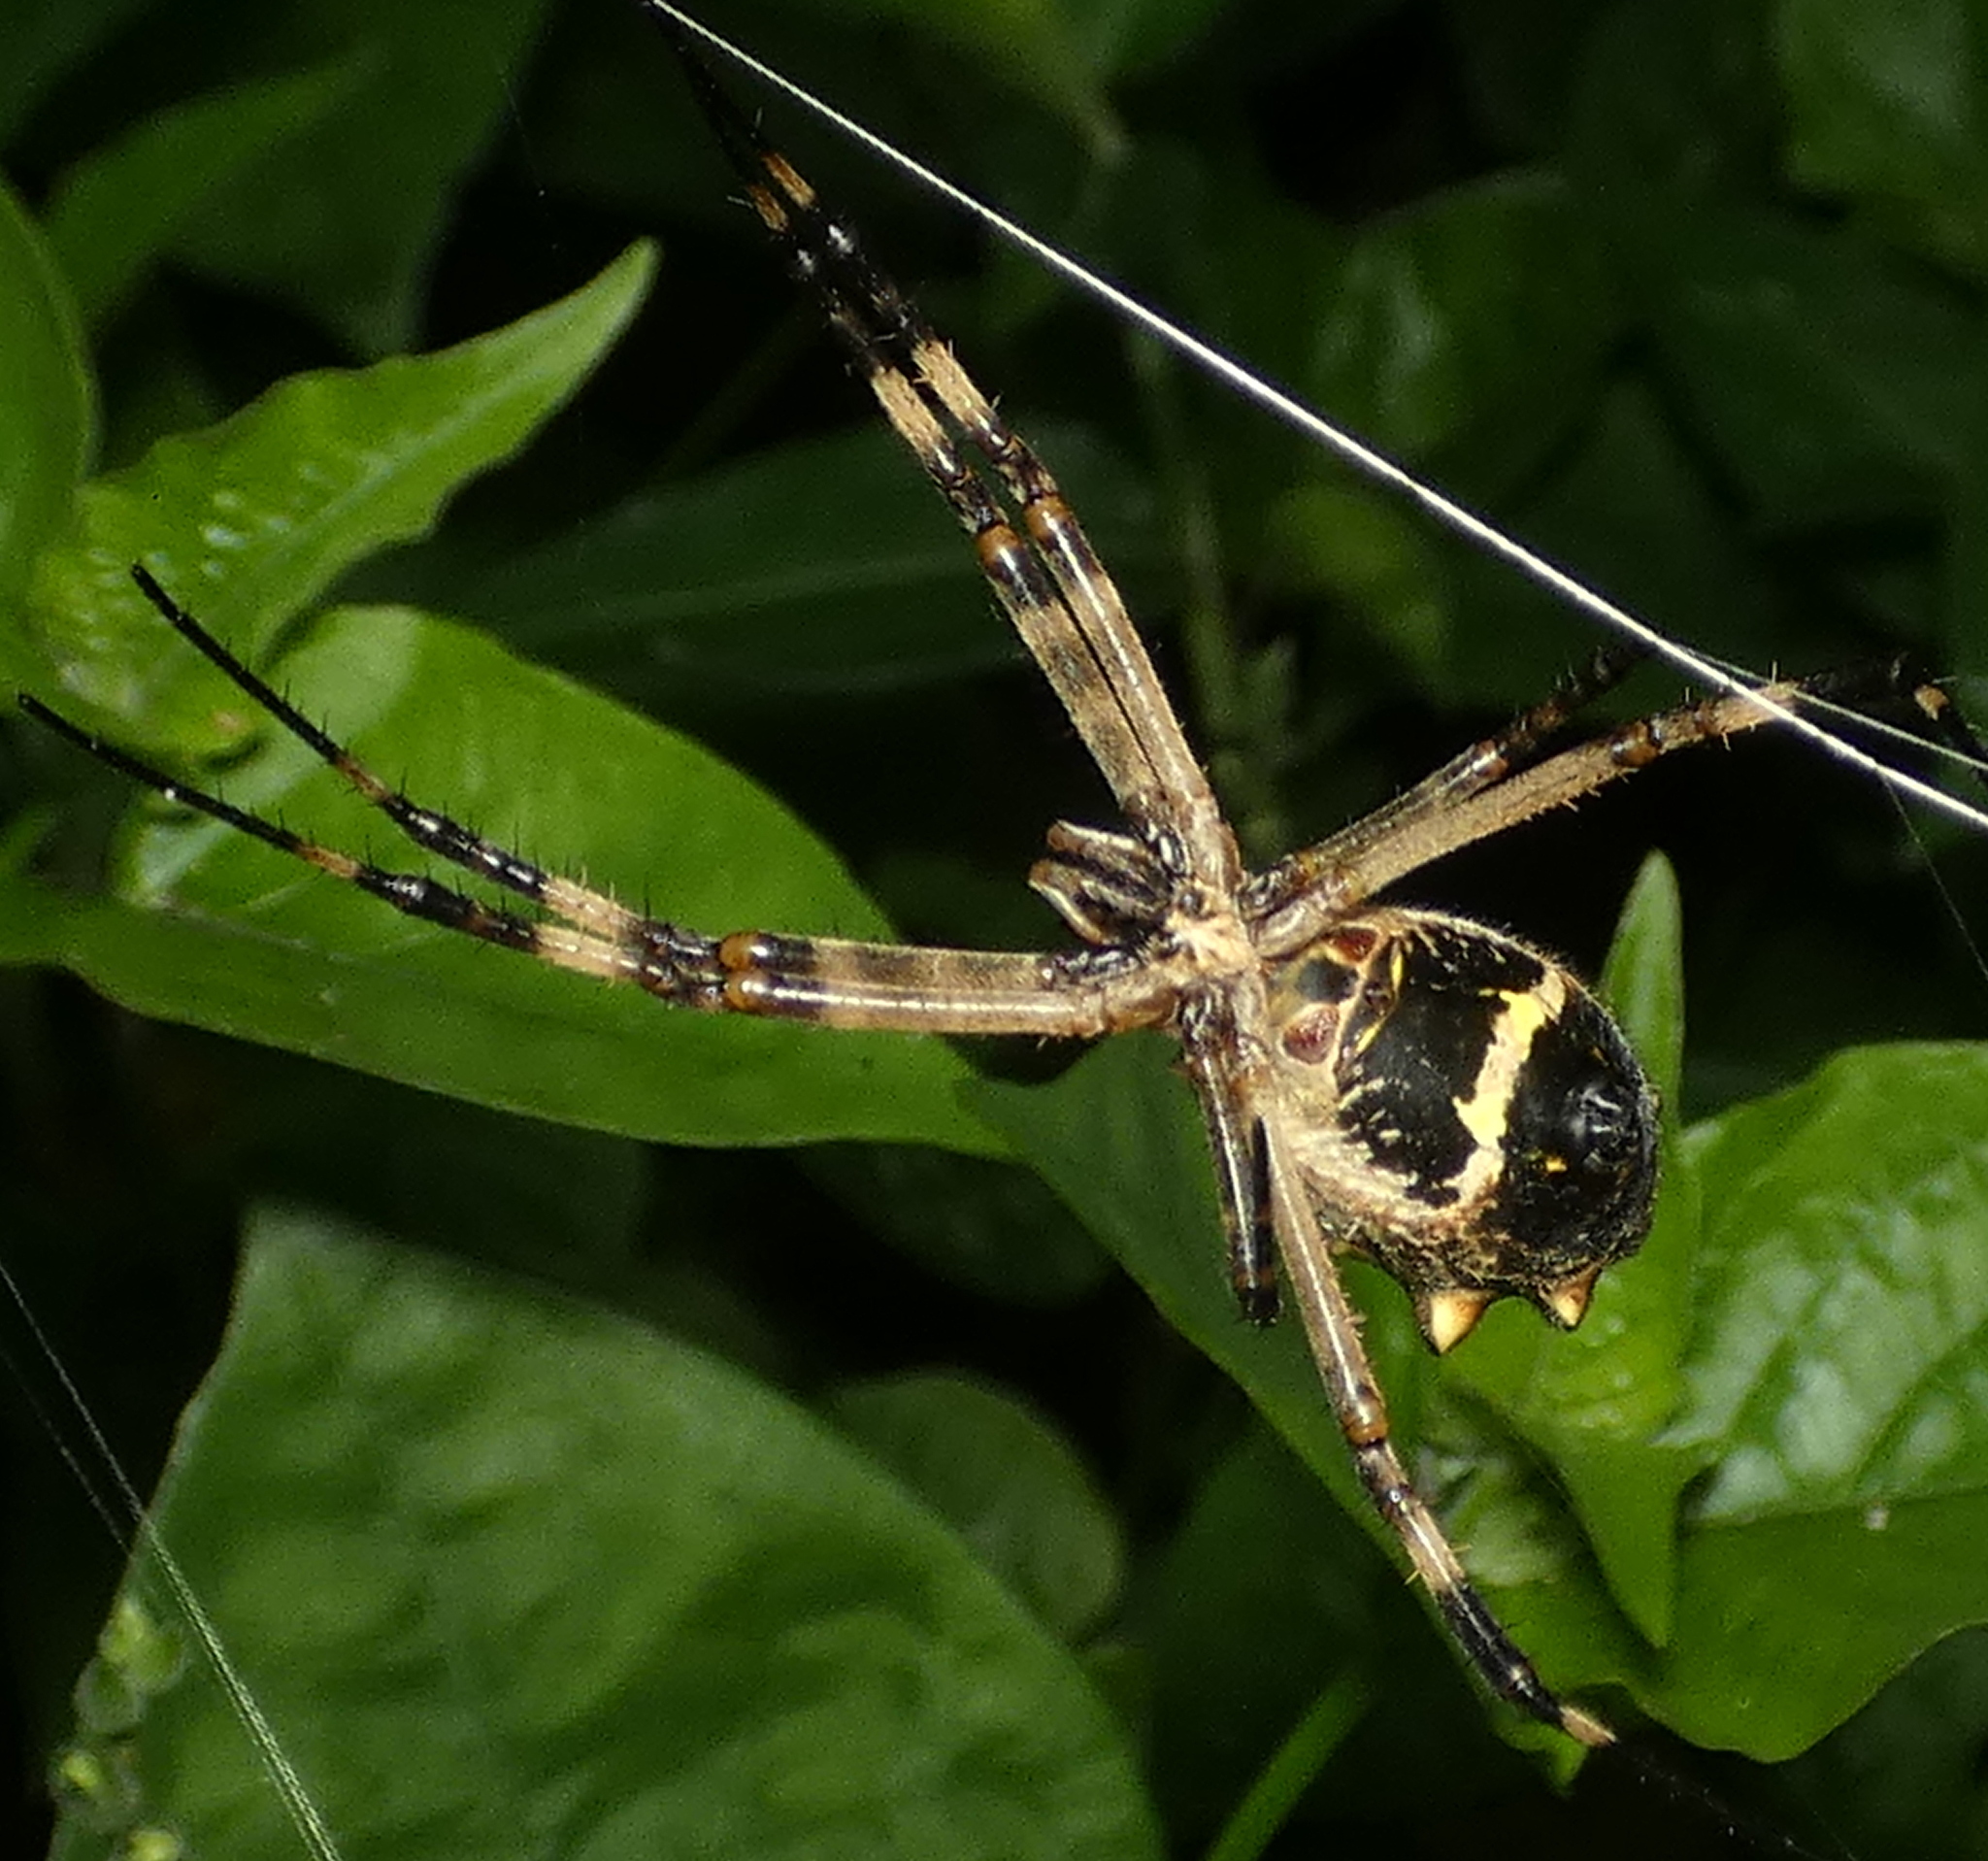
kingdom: Animalia
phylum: Arthropoda
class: Arachnida
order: Araneae
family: Araneidae
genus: Argiope
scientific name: Argiope argentata
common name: Orb weavers
